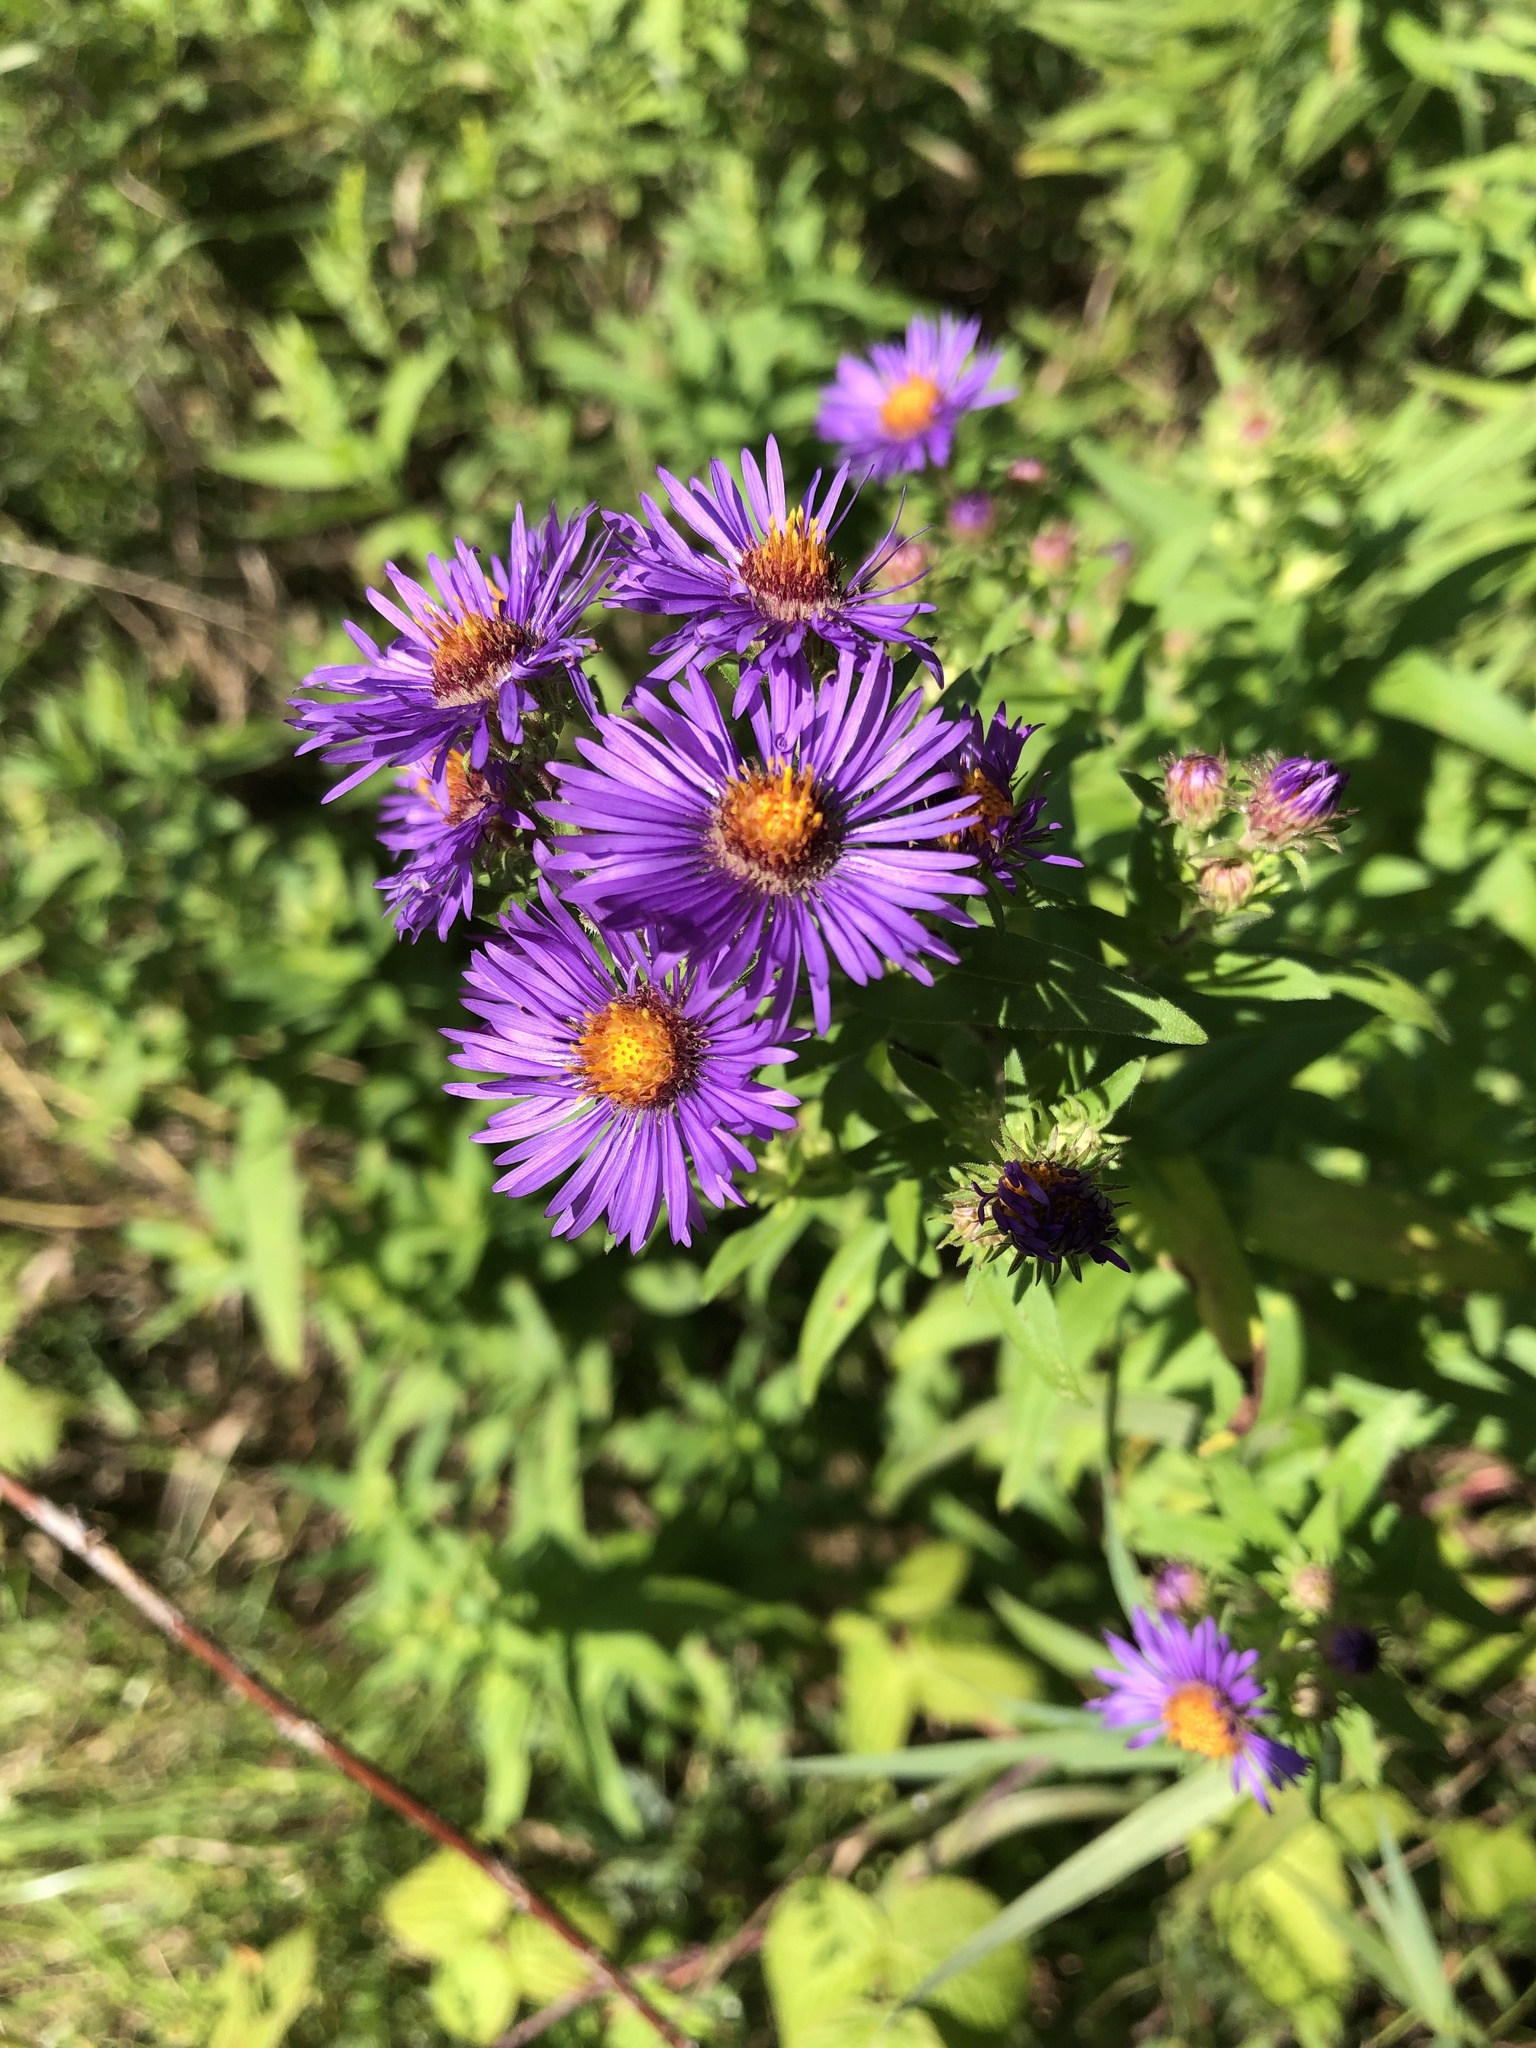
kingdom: Plantae
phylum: Tracheophyta
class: Magnoliopsida
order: Asterales
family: Asteraceae
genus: Symphyotrichum
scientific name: Symphyotrichum novae-angliae
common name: Michaelmas daisy
